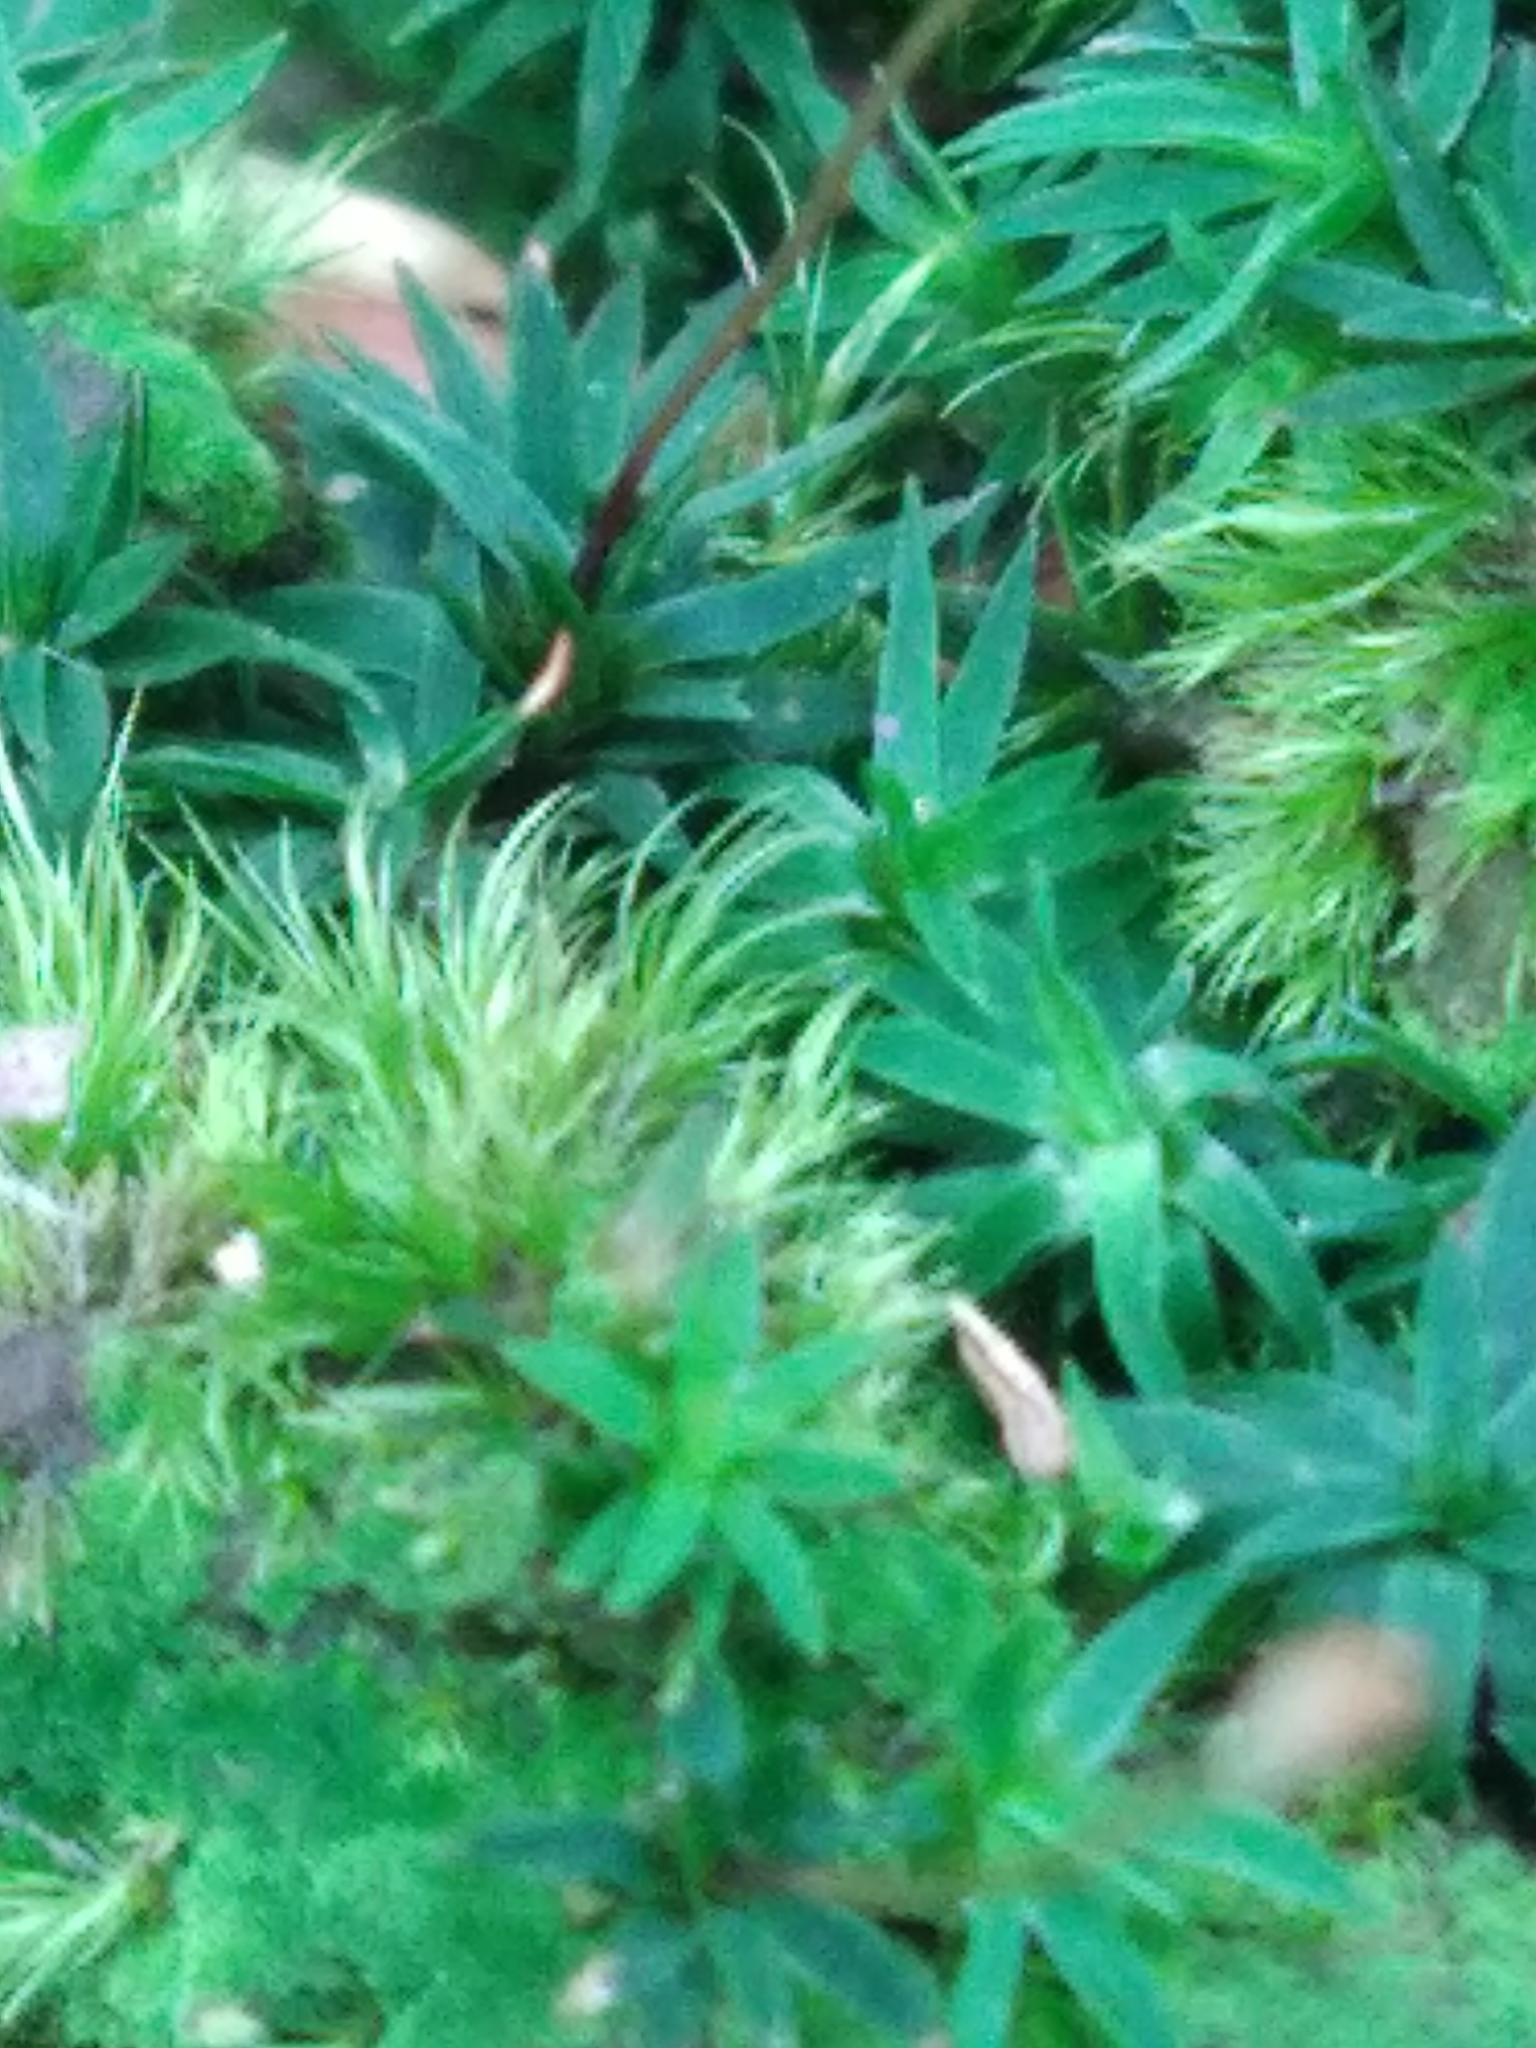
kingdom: Plantae
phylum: Bryophyta
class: Polytrichopsida
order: Polytrichales
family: Polytrichaceae
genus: Pogonatum
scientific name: Pogonatum aloides
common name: Aloe haircap
